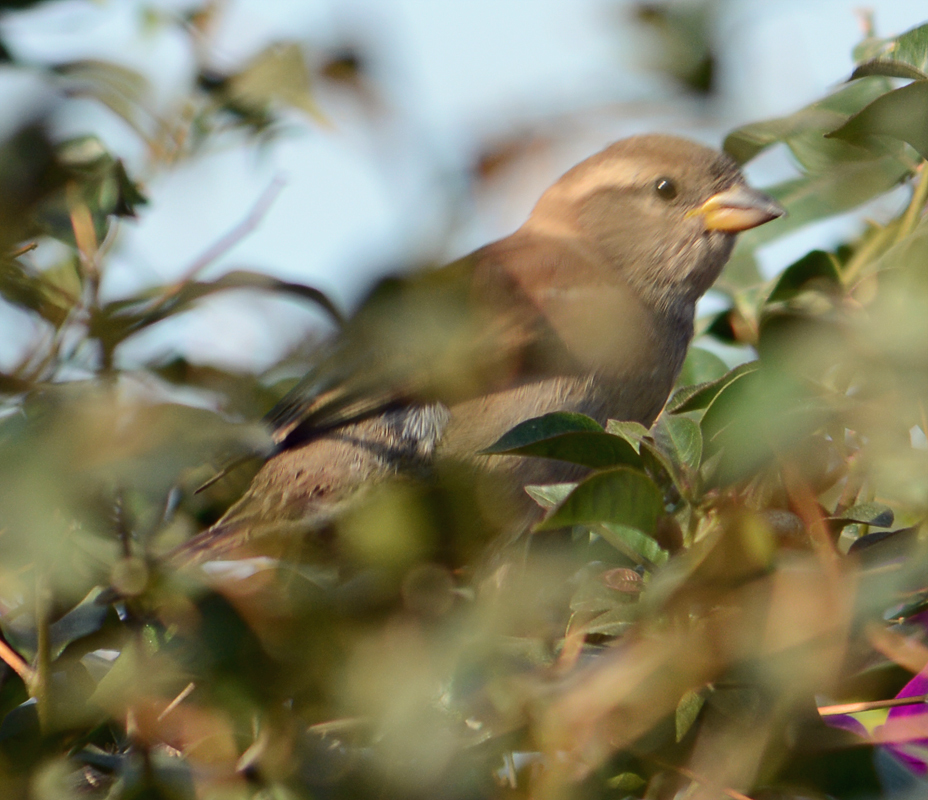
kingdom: Animalia
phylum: Chordata
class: Aves
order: Passeriformes
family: Passeridae
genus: Passer
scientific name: Passer domesticus
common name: House sparrow
